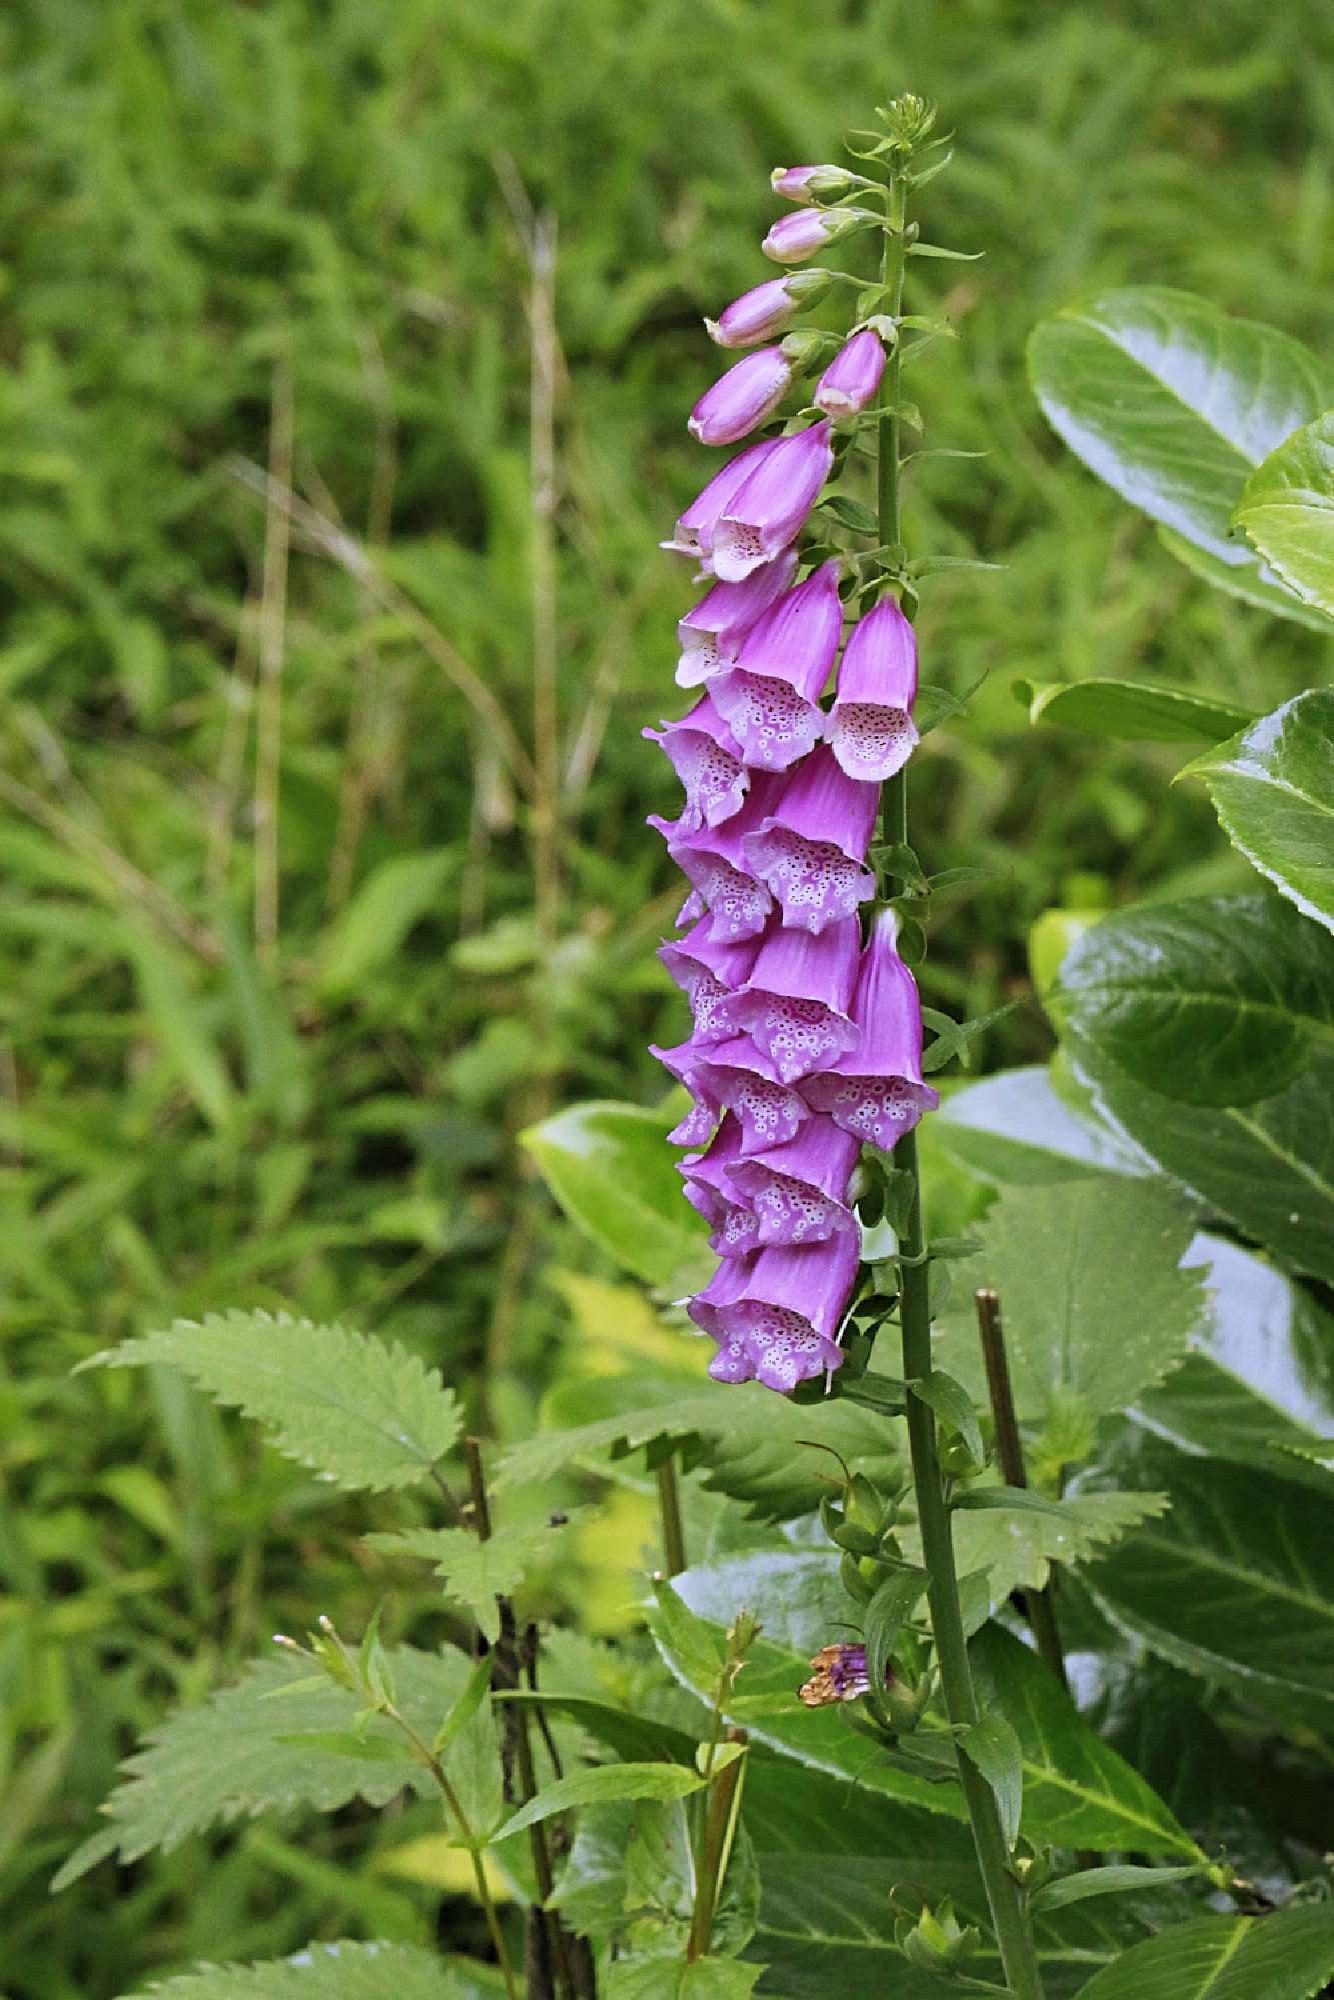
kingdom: Plantae
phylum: Tracheophyta
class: Magnoliopsida
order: Lamiales
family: Plantaginaceae
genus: Digitalis
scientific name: Digitalis purpurea
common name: Foxglove
